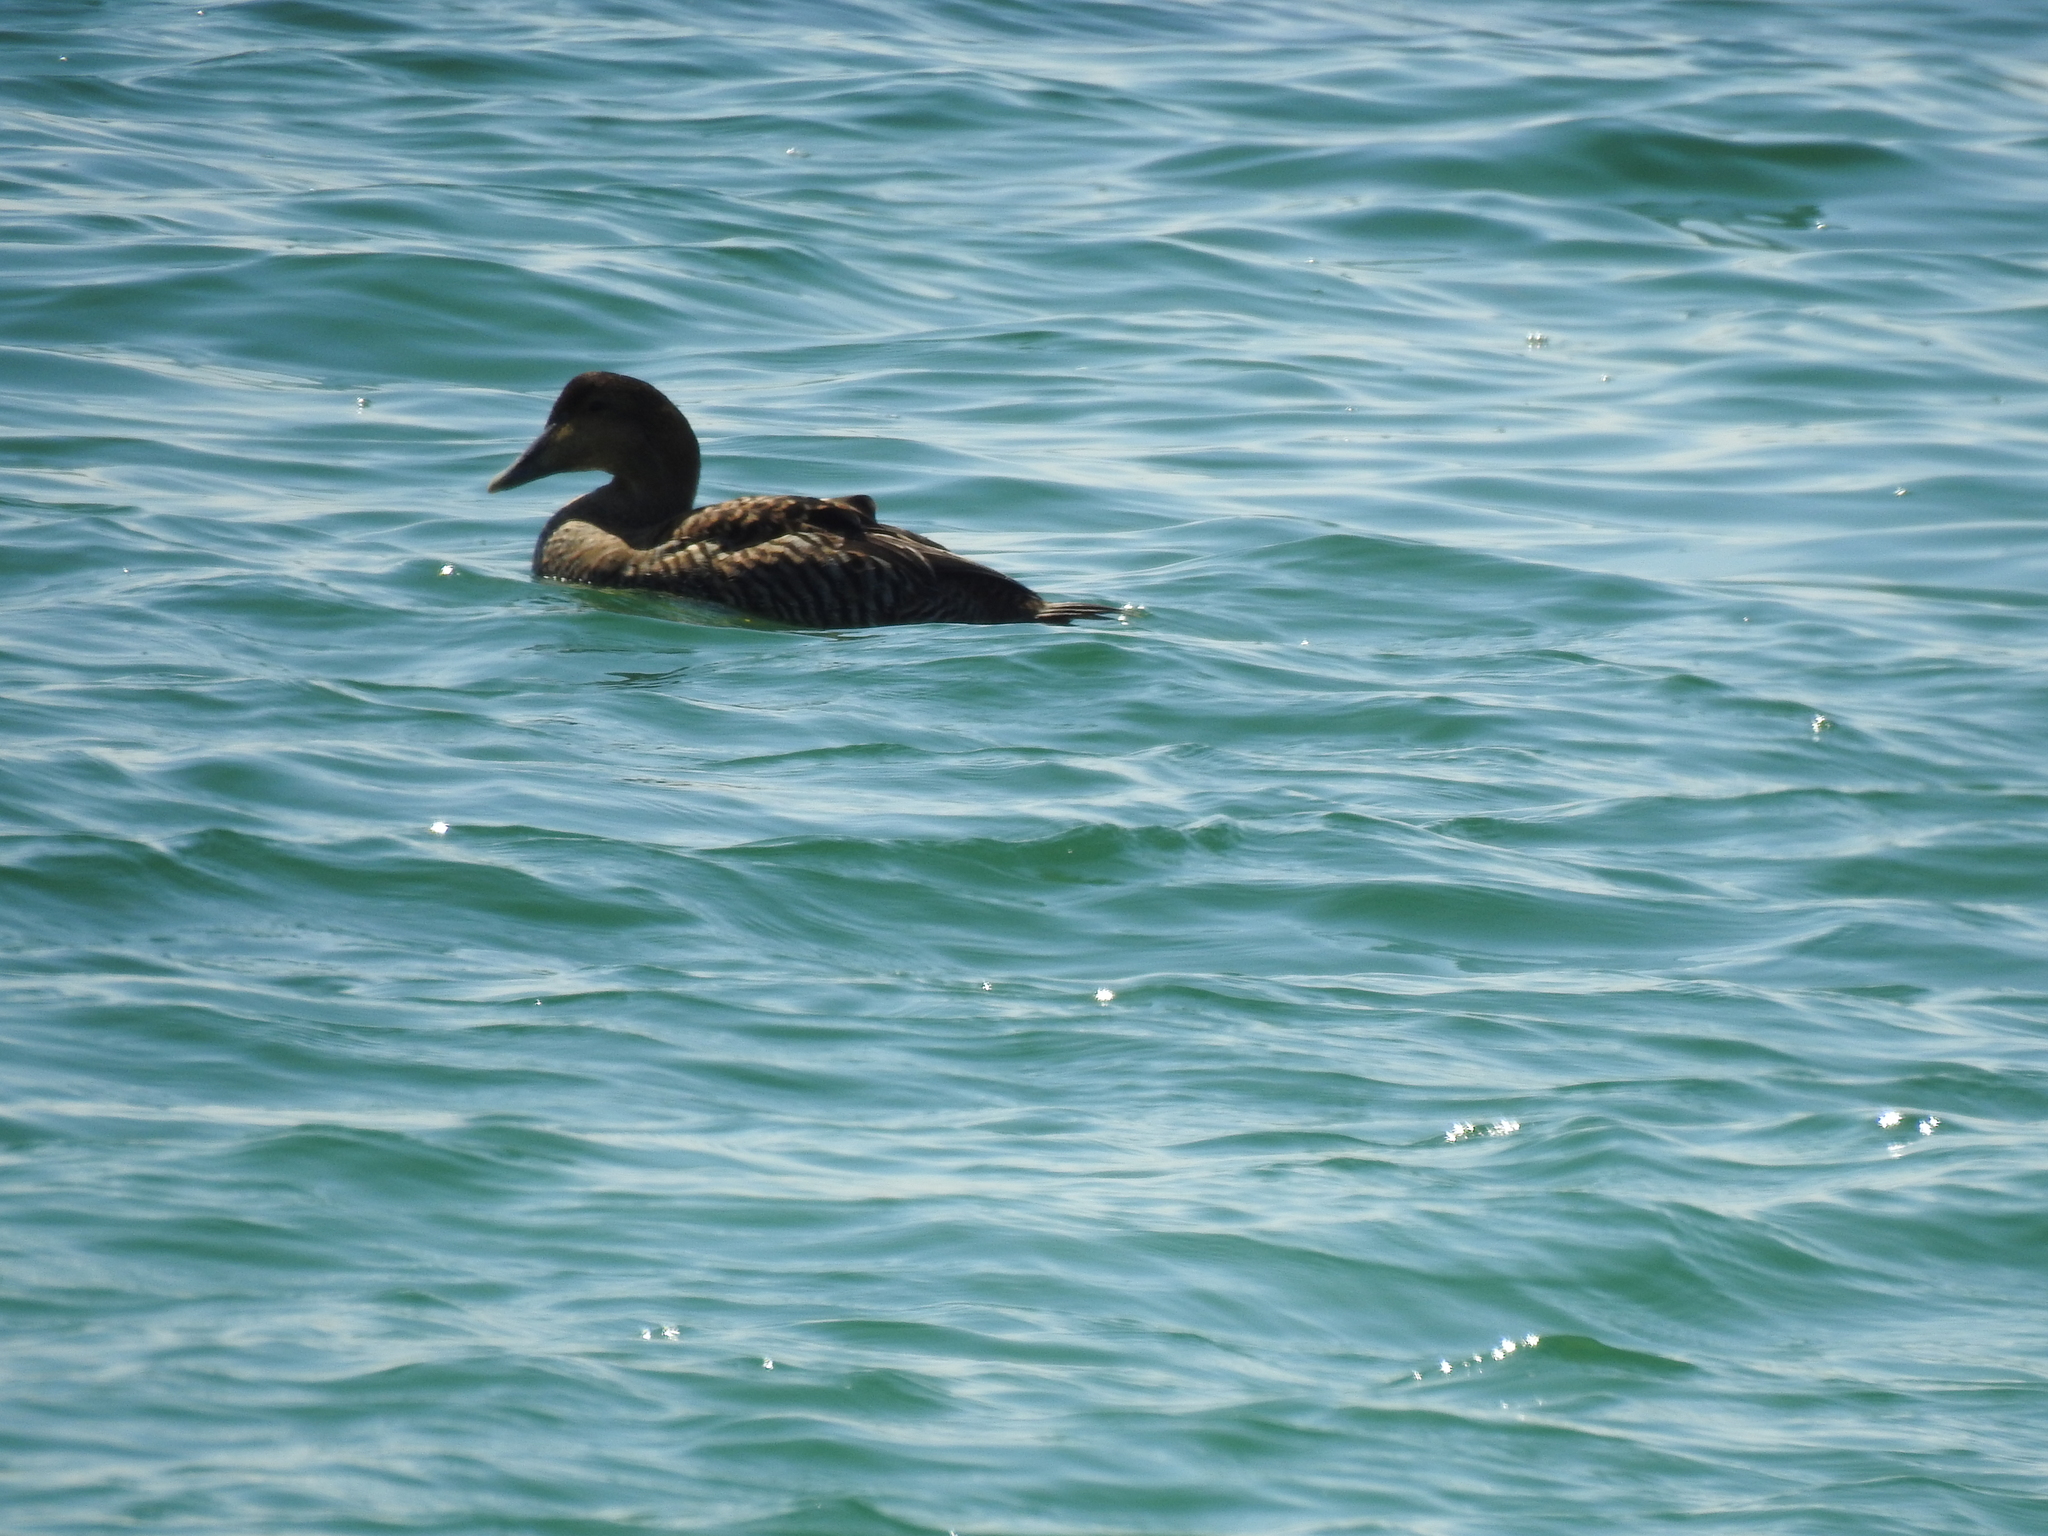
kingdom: Animalia
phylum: Chordata
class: Aves
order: Anseriformes
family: Anatidae
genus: Somateria
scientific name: Somateria mollissima
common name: Common eider
